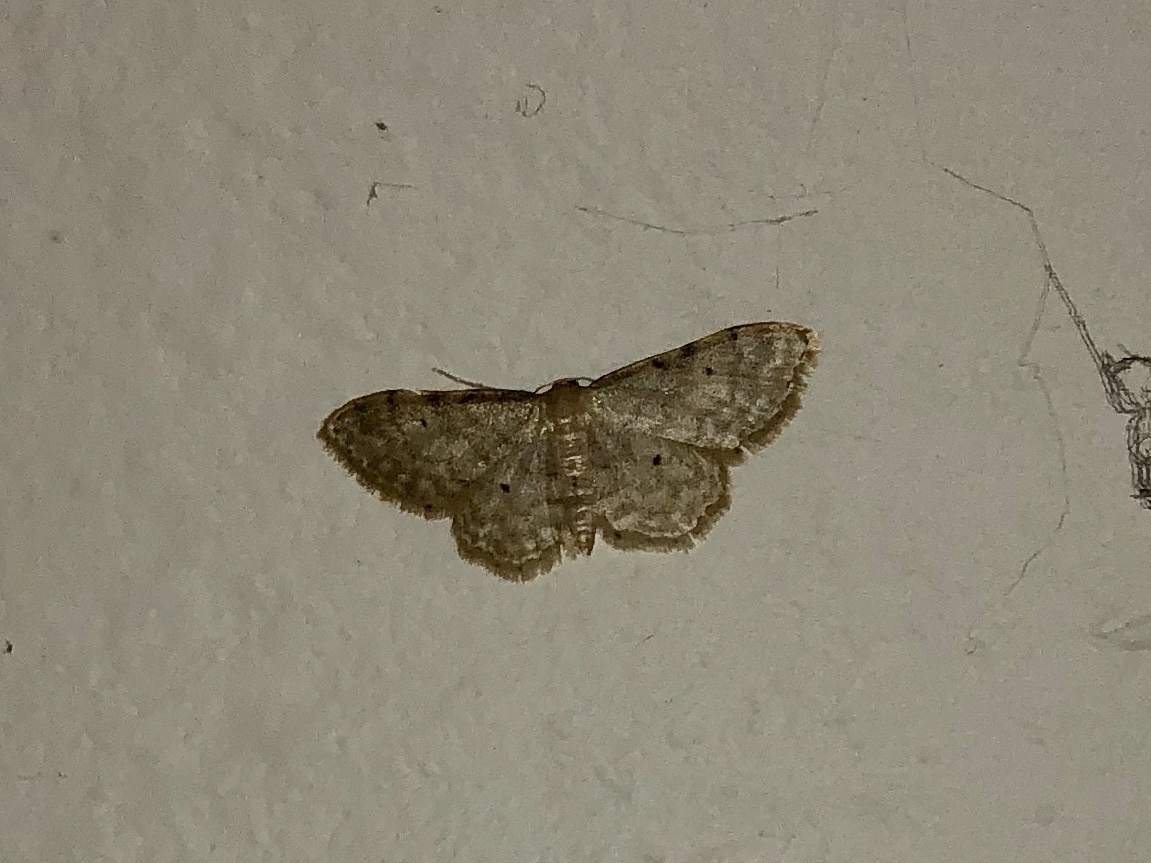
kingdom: Animalia
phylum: Arthropoda
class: Insecta
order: Lepidoptera
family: Geometridae
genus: Idaea
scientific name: Idaea fuscovenosa
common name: Dwarf cream wave
